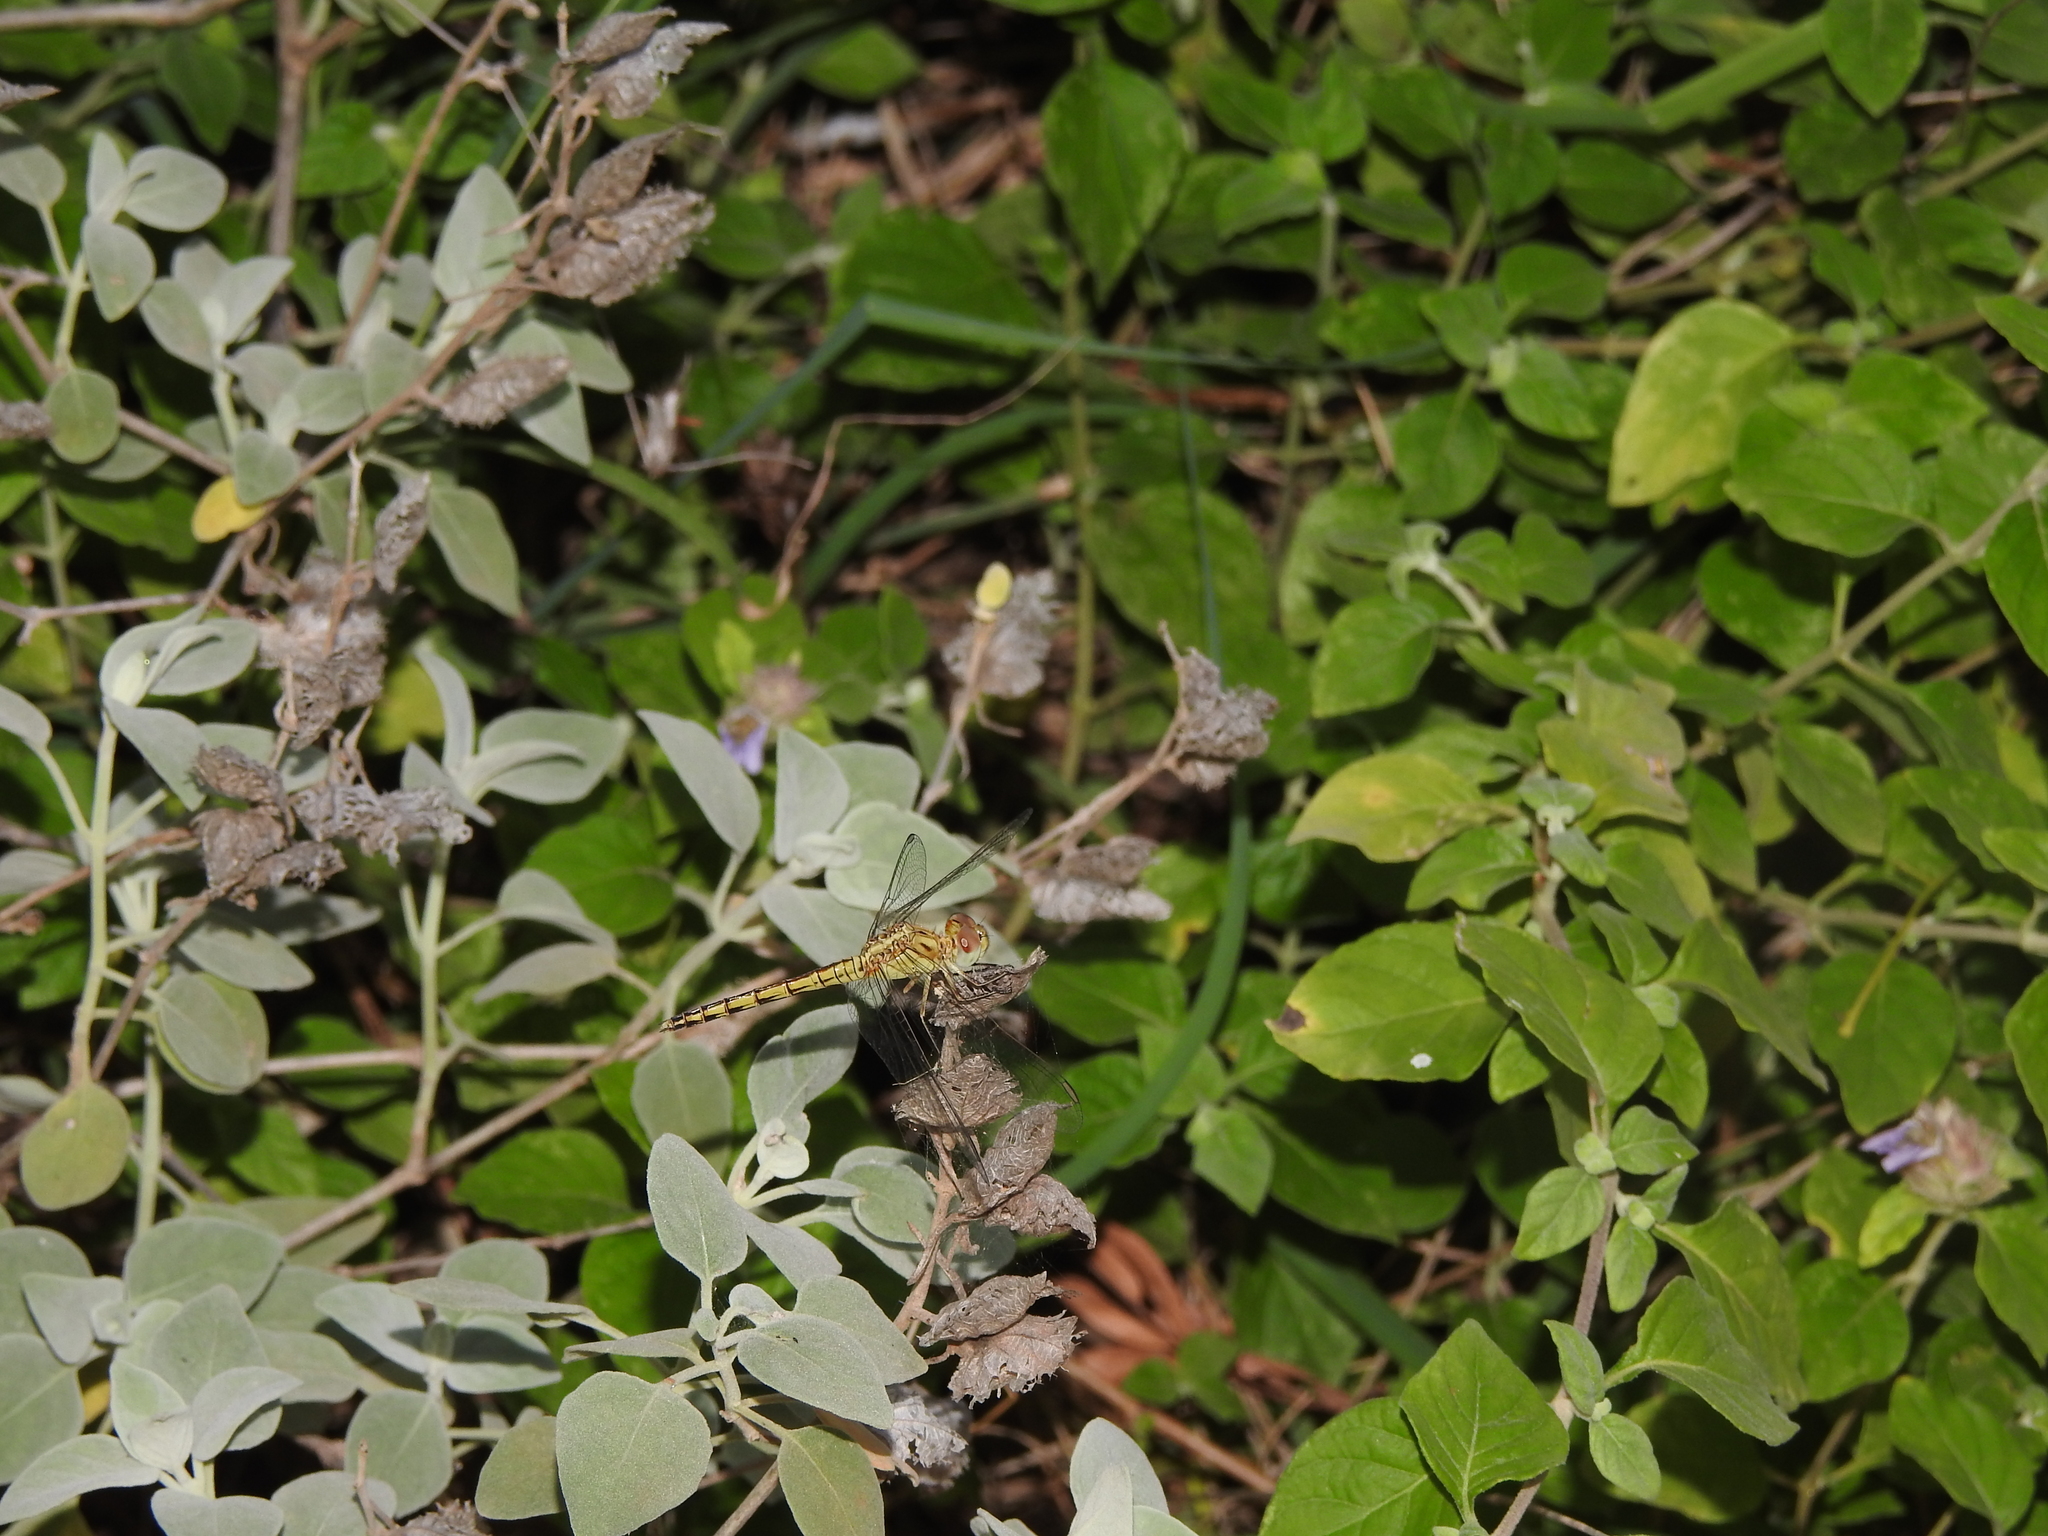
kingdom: Animalia
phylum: Arthropoda
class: Insecta
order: Odonata
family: Libellulidae
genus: Indothemis
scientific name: Indothemis carnatica
